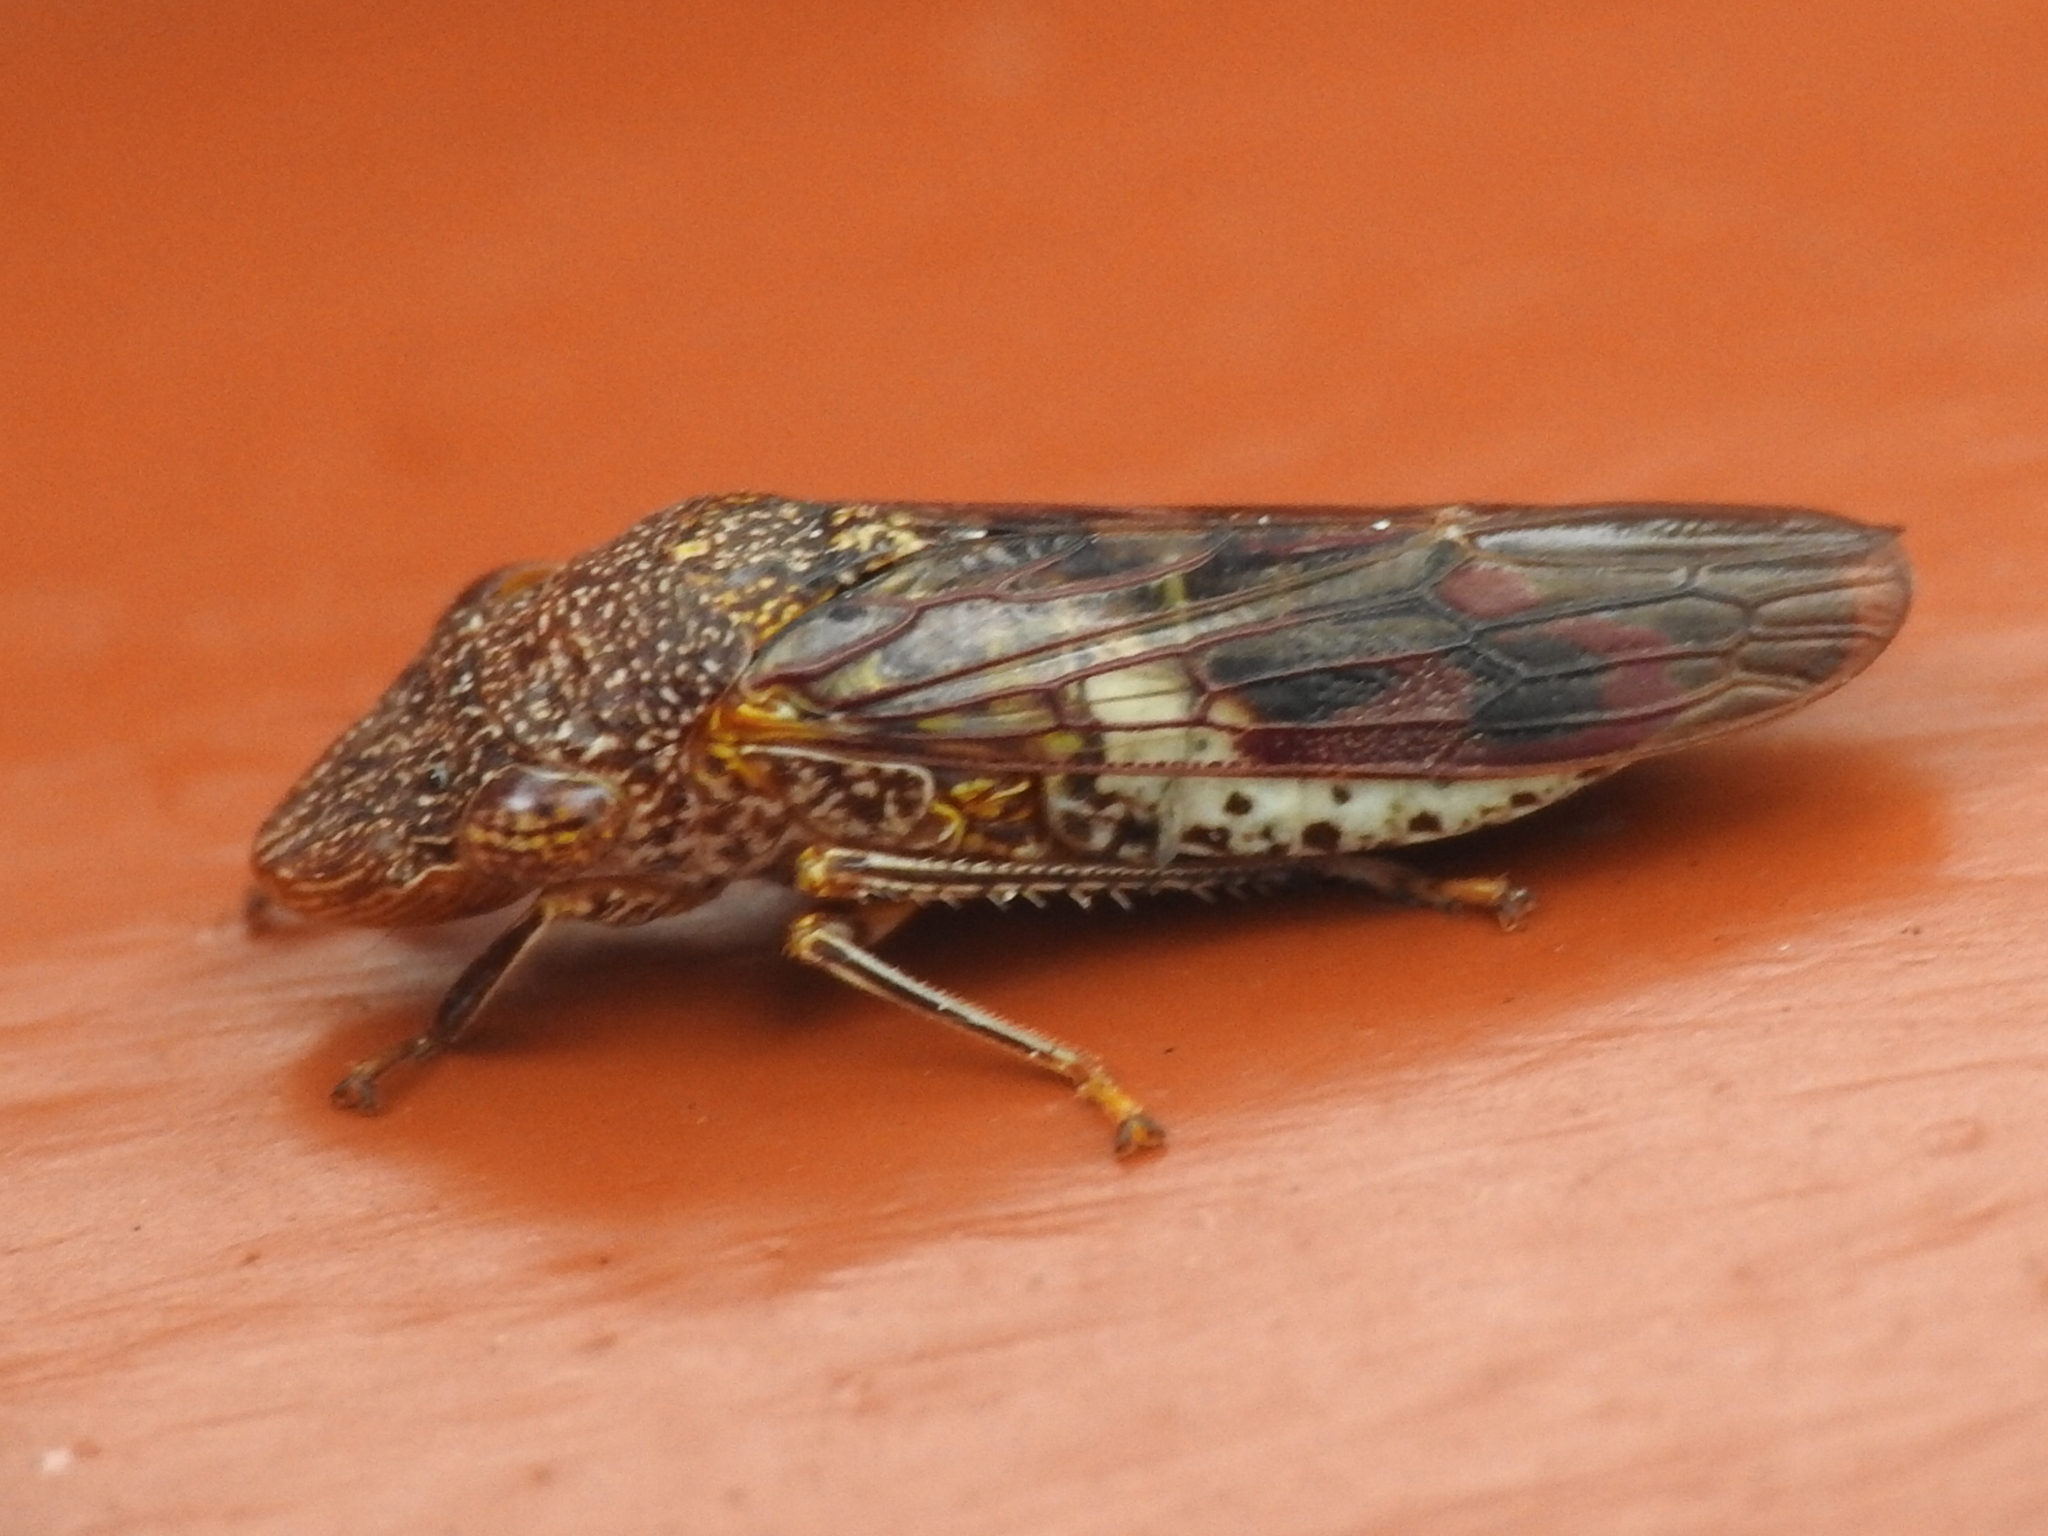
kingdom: Animalia
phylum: Arthropoda
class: Insecta
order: Hemiptera
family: Cicadellidae
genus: Homalodisca
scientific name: Homalodisca vitripennis
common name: Glassy-winged sharpshooter
